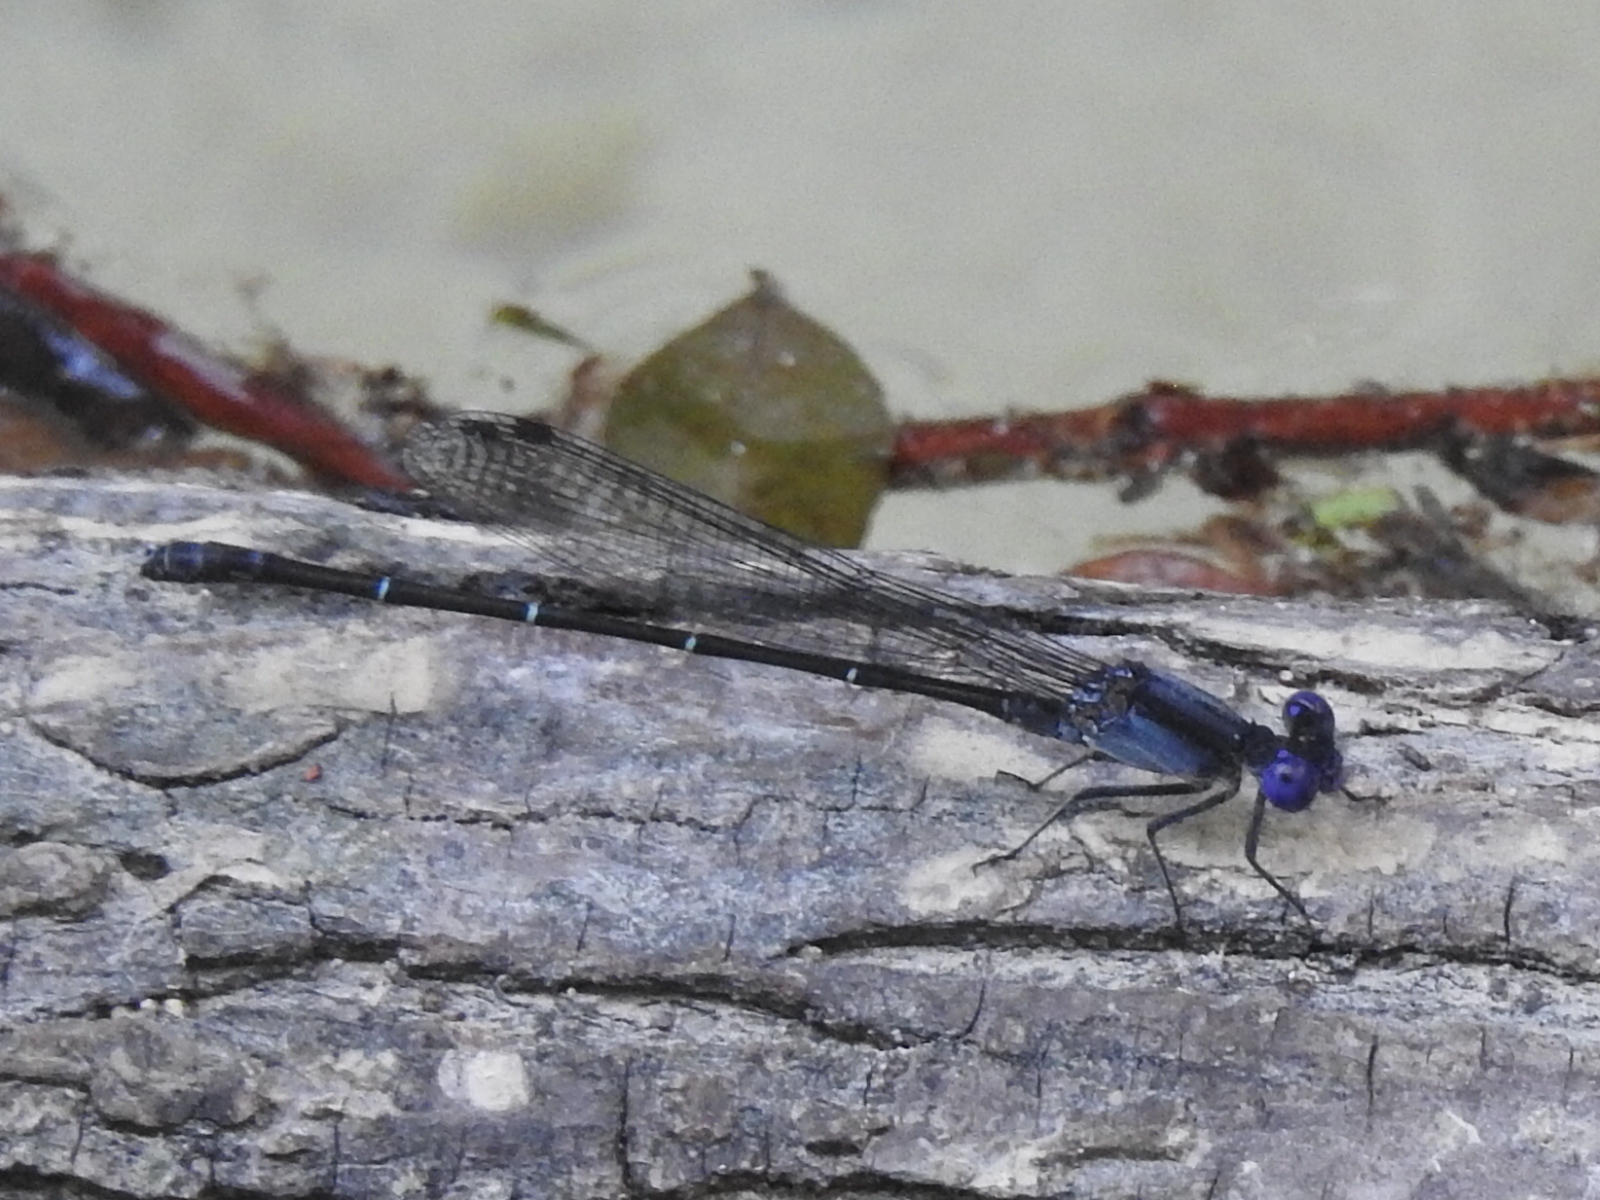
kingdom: Animalia
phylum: Arthropoda
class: Insecta
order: Odonata
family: Coenagrionidae
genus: Argia
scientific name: Argia translata
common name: Dusky dancer
